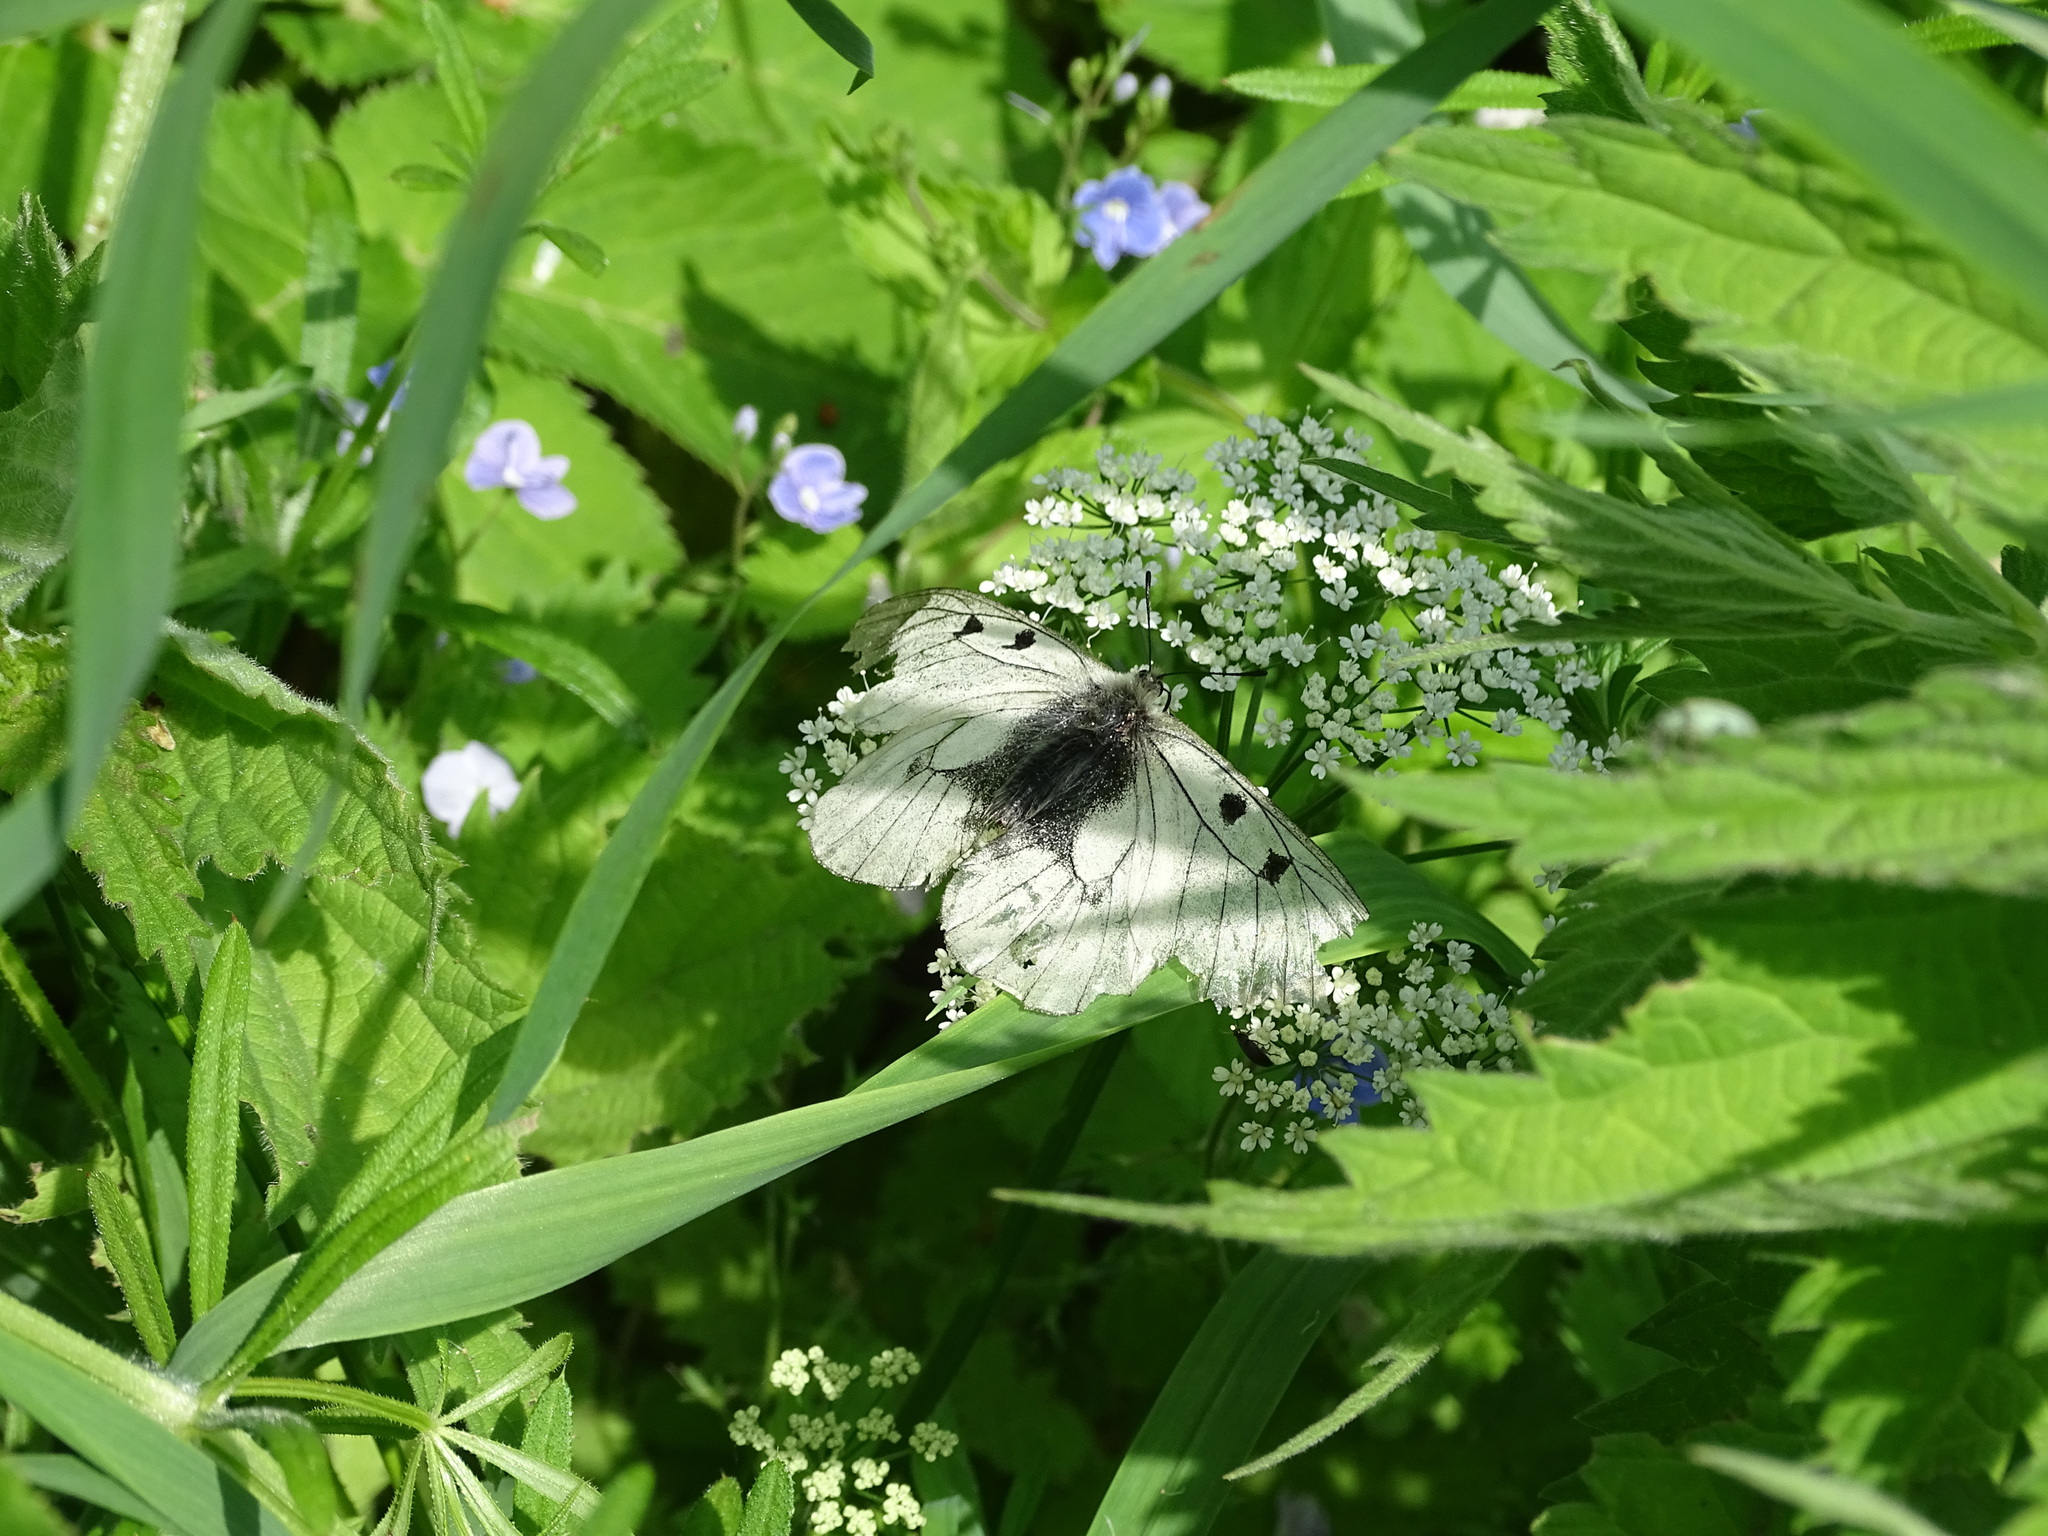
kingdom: Animalia
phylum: Arthropoda
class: Insecta
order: Lepidoptera
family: Papilionidae
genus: Parnassius
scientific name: Parnassius mnemosyne
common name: Clouded apollo
